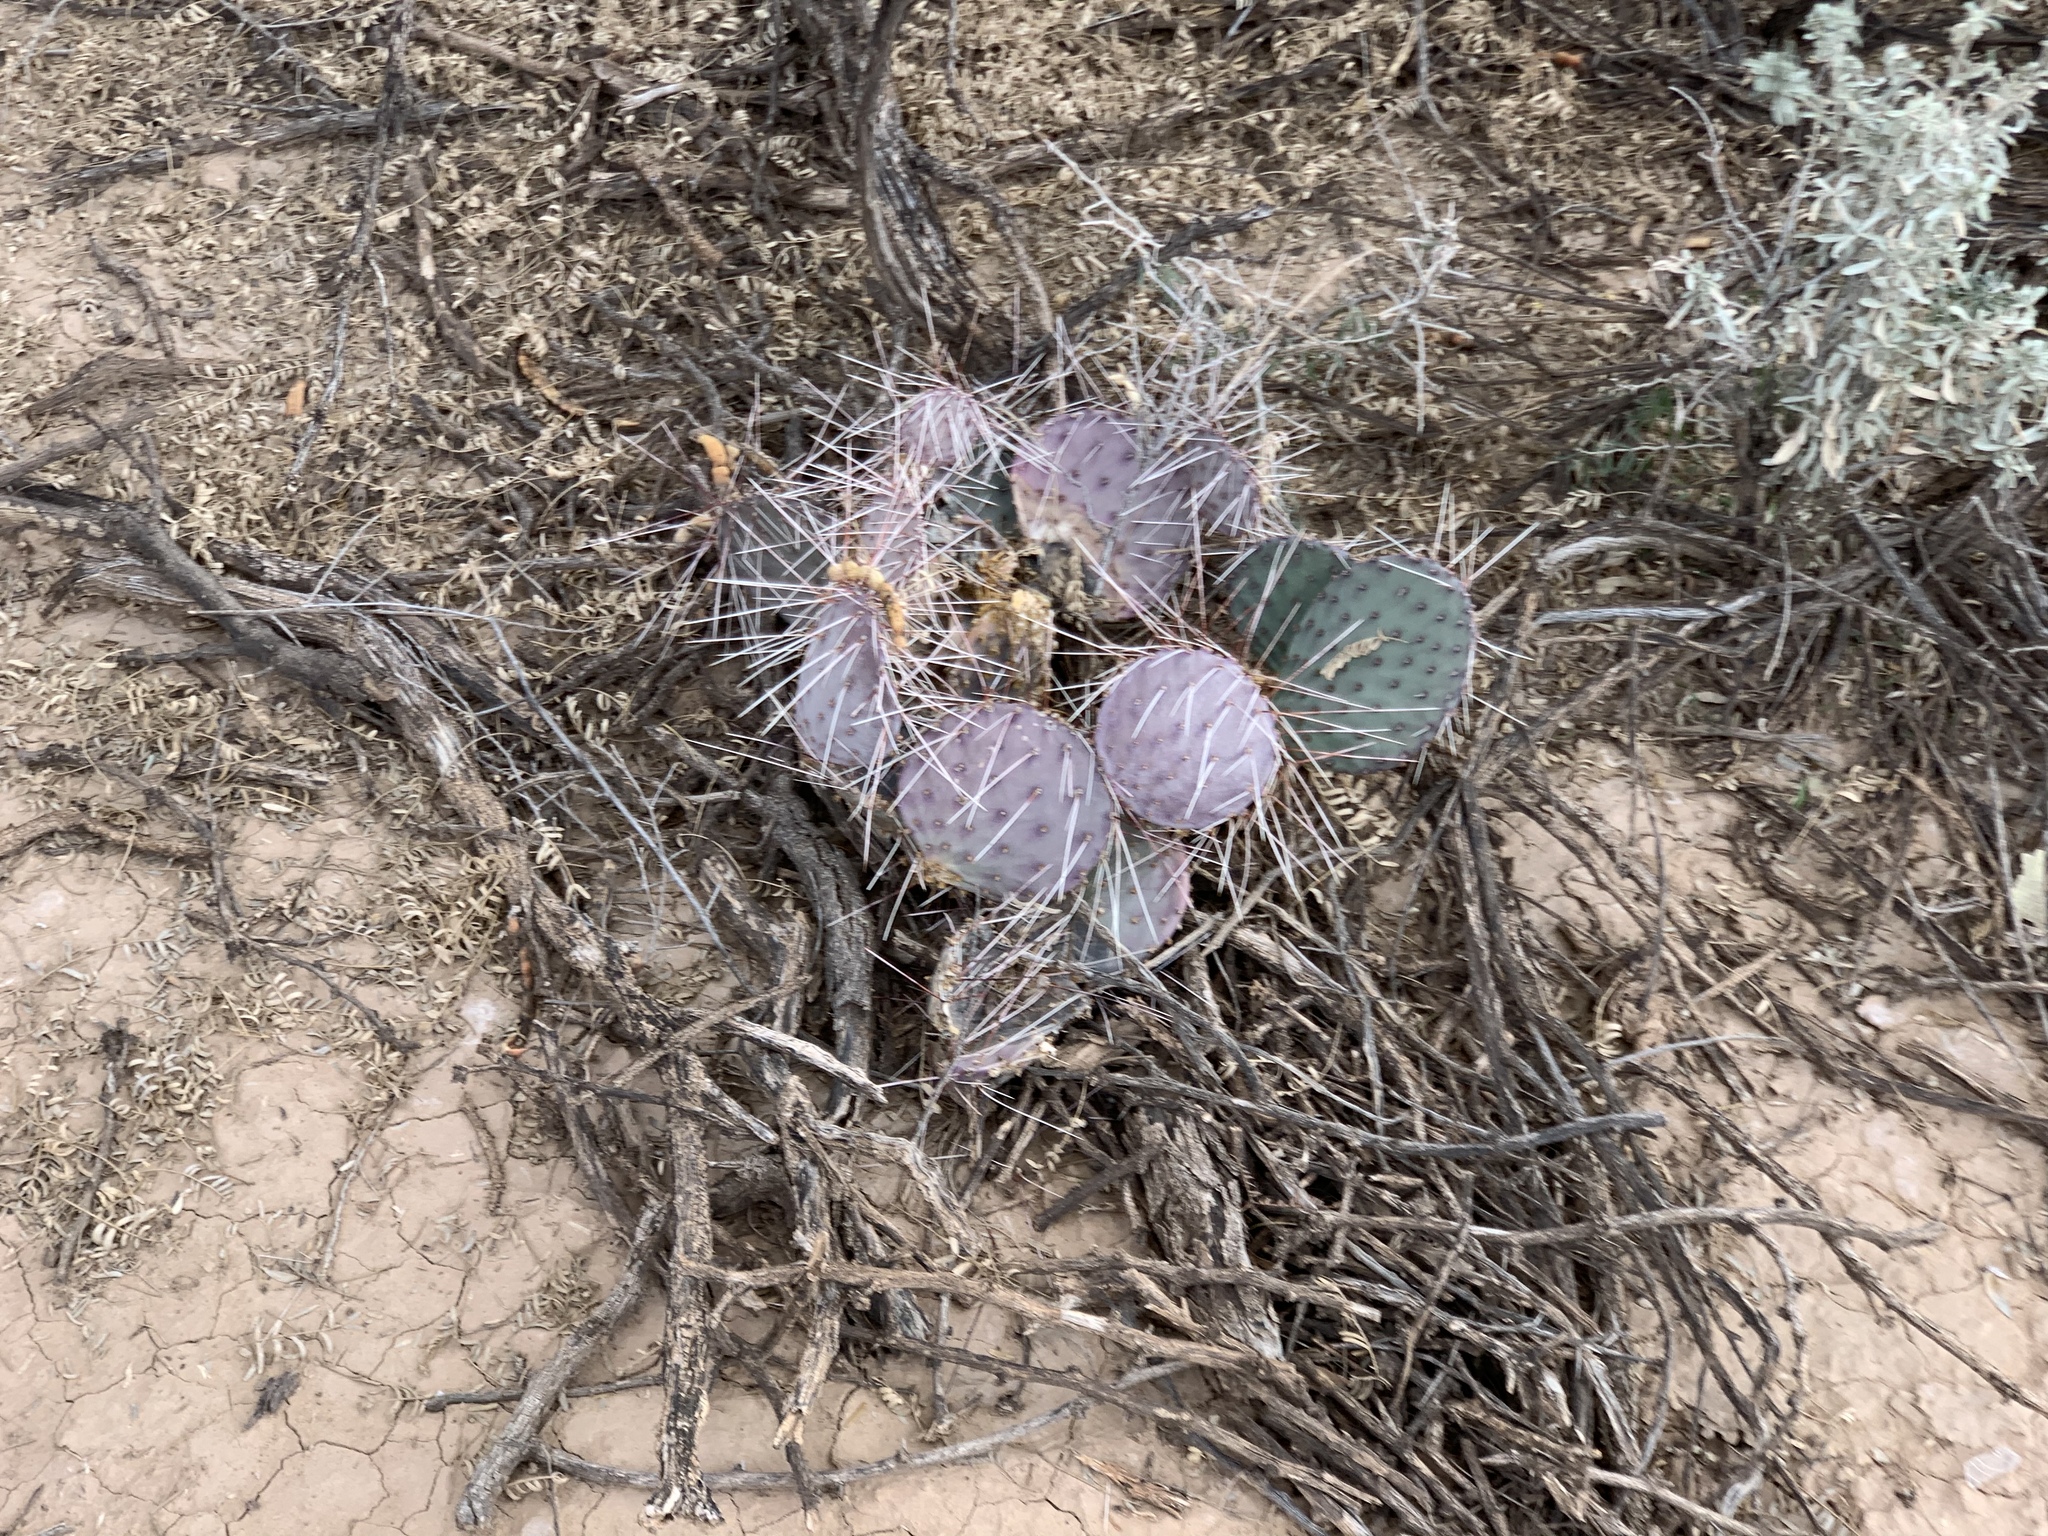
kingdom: Plantae
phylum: Tracheophyta
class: Magnoliopsida
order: Caryophyllales
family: Cactaceae
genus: Opuntia
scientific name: Opuntia macrocentra
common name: Purple prickly-pear
